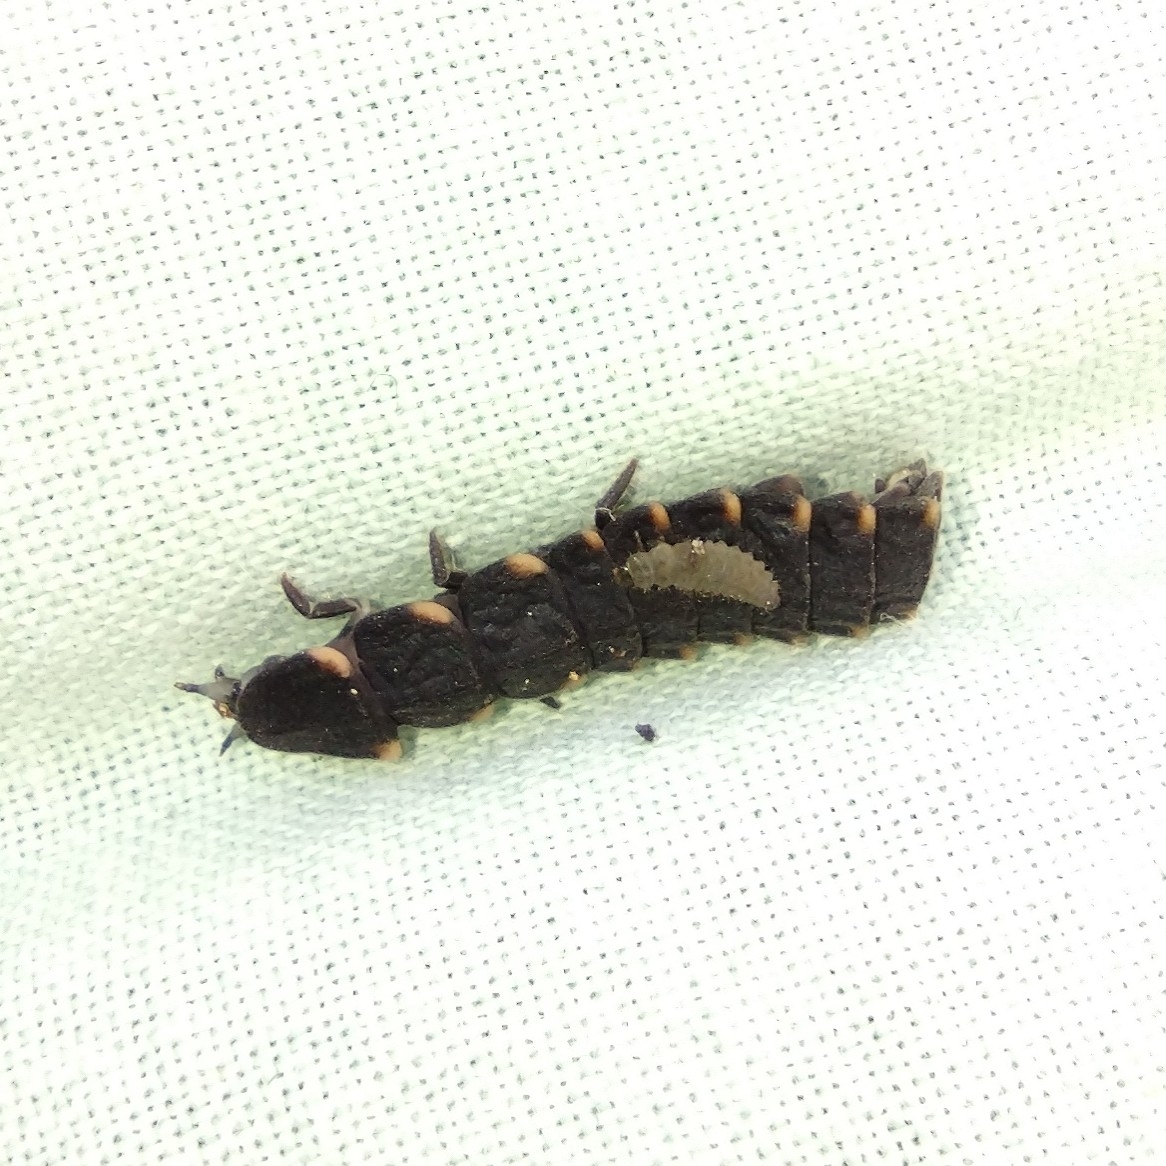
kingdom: Animalia
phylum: Arthropoda
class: Insecta
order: Coleoptera
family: Lampyridae
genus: Lampyris
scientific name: Lampyris noctiluca
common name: Glow-worm
